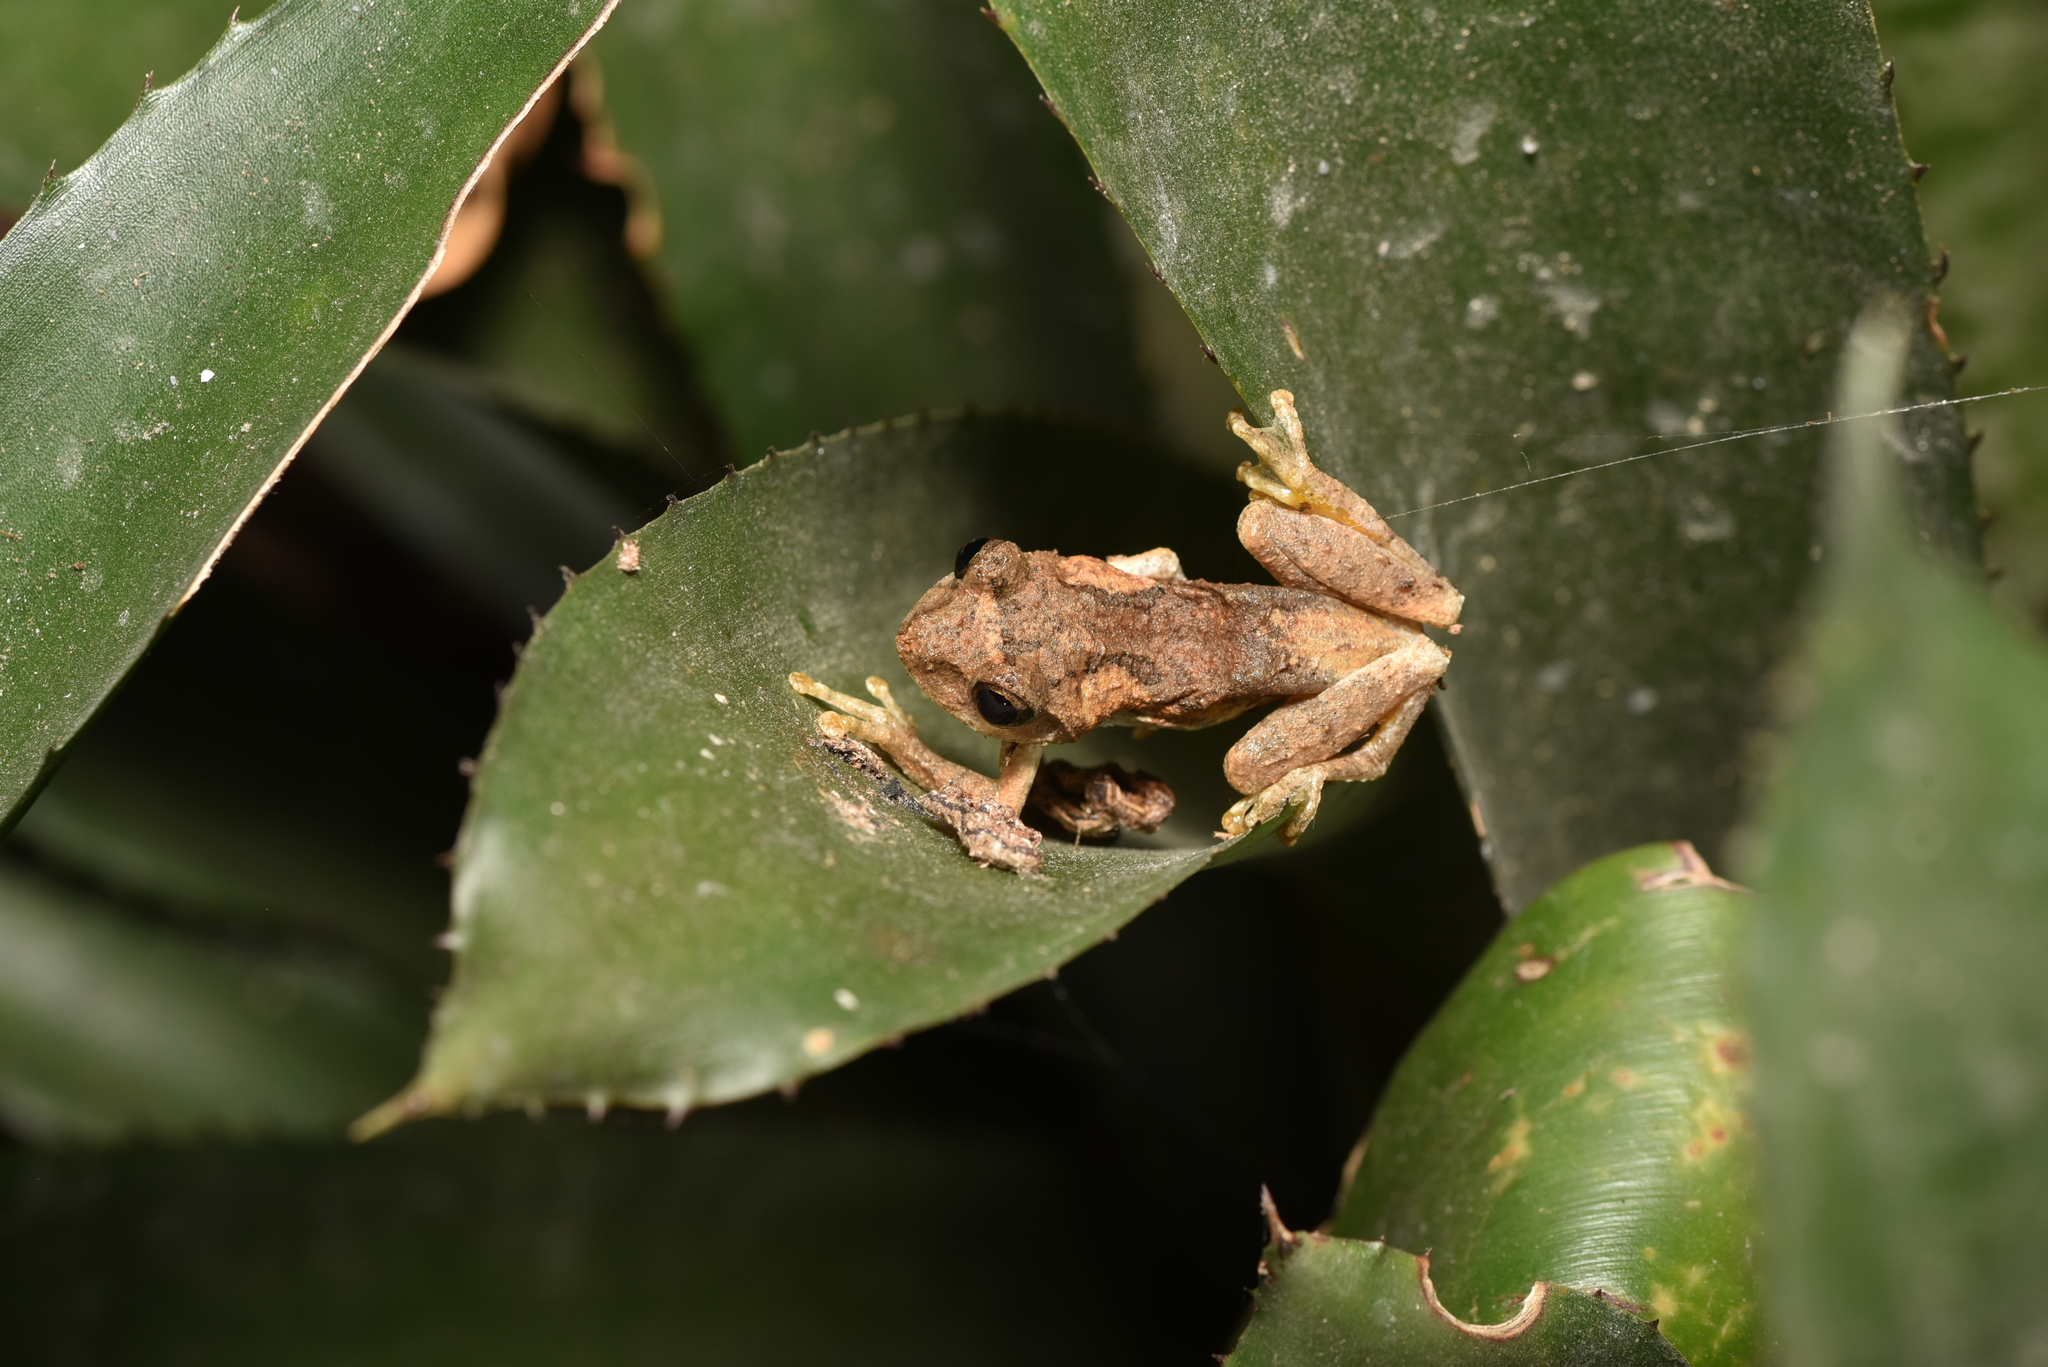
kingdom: Animalia
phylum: Chordata
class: Amphibia
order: Anura
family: Rhacophoridae
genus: Kurixalus
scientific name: Kurixalus idiootocus
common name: Temple treefrog
